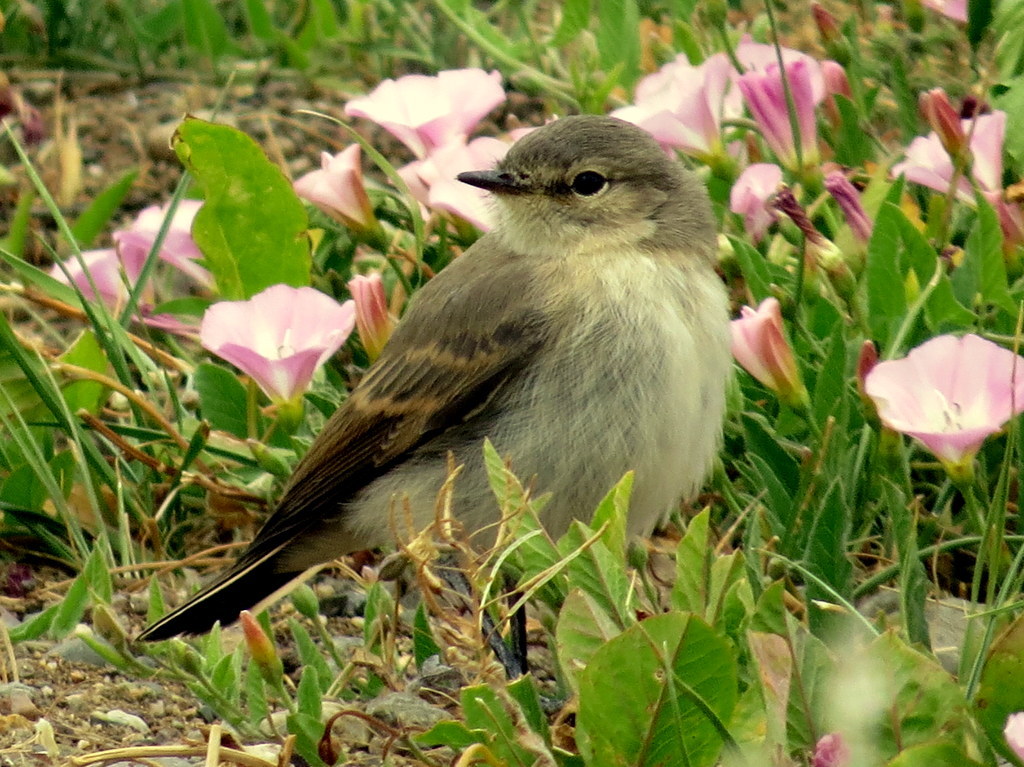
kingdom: Animalia
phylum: Chordata
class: Aves
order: Passeriformes
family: Tyrannidae
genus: Muscisaxicola
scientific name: Muscisaxicola maculirostris
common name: Spot-billed ground tyrant
